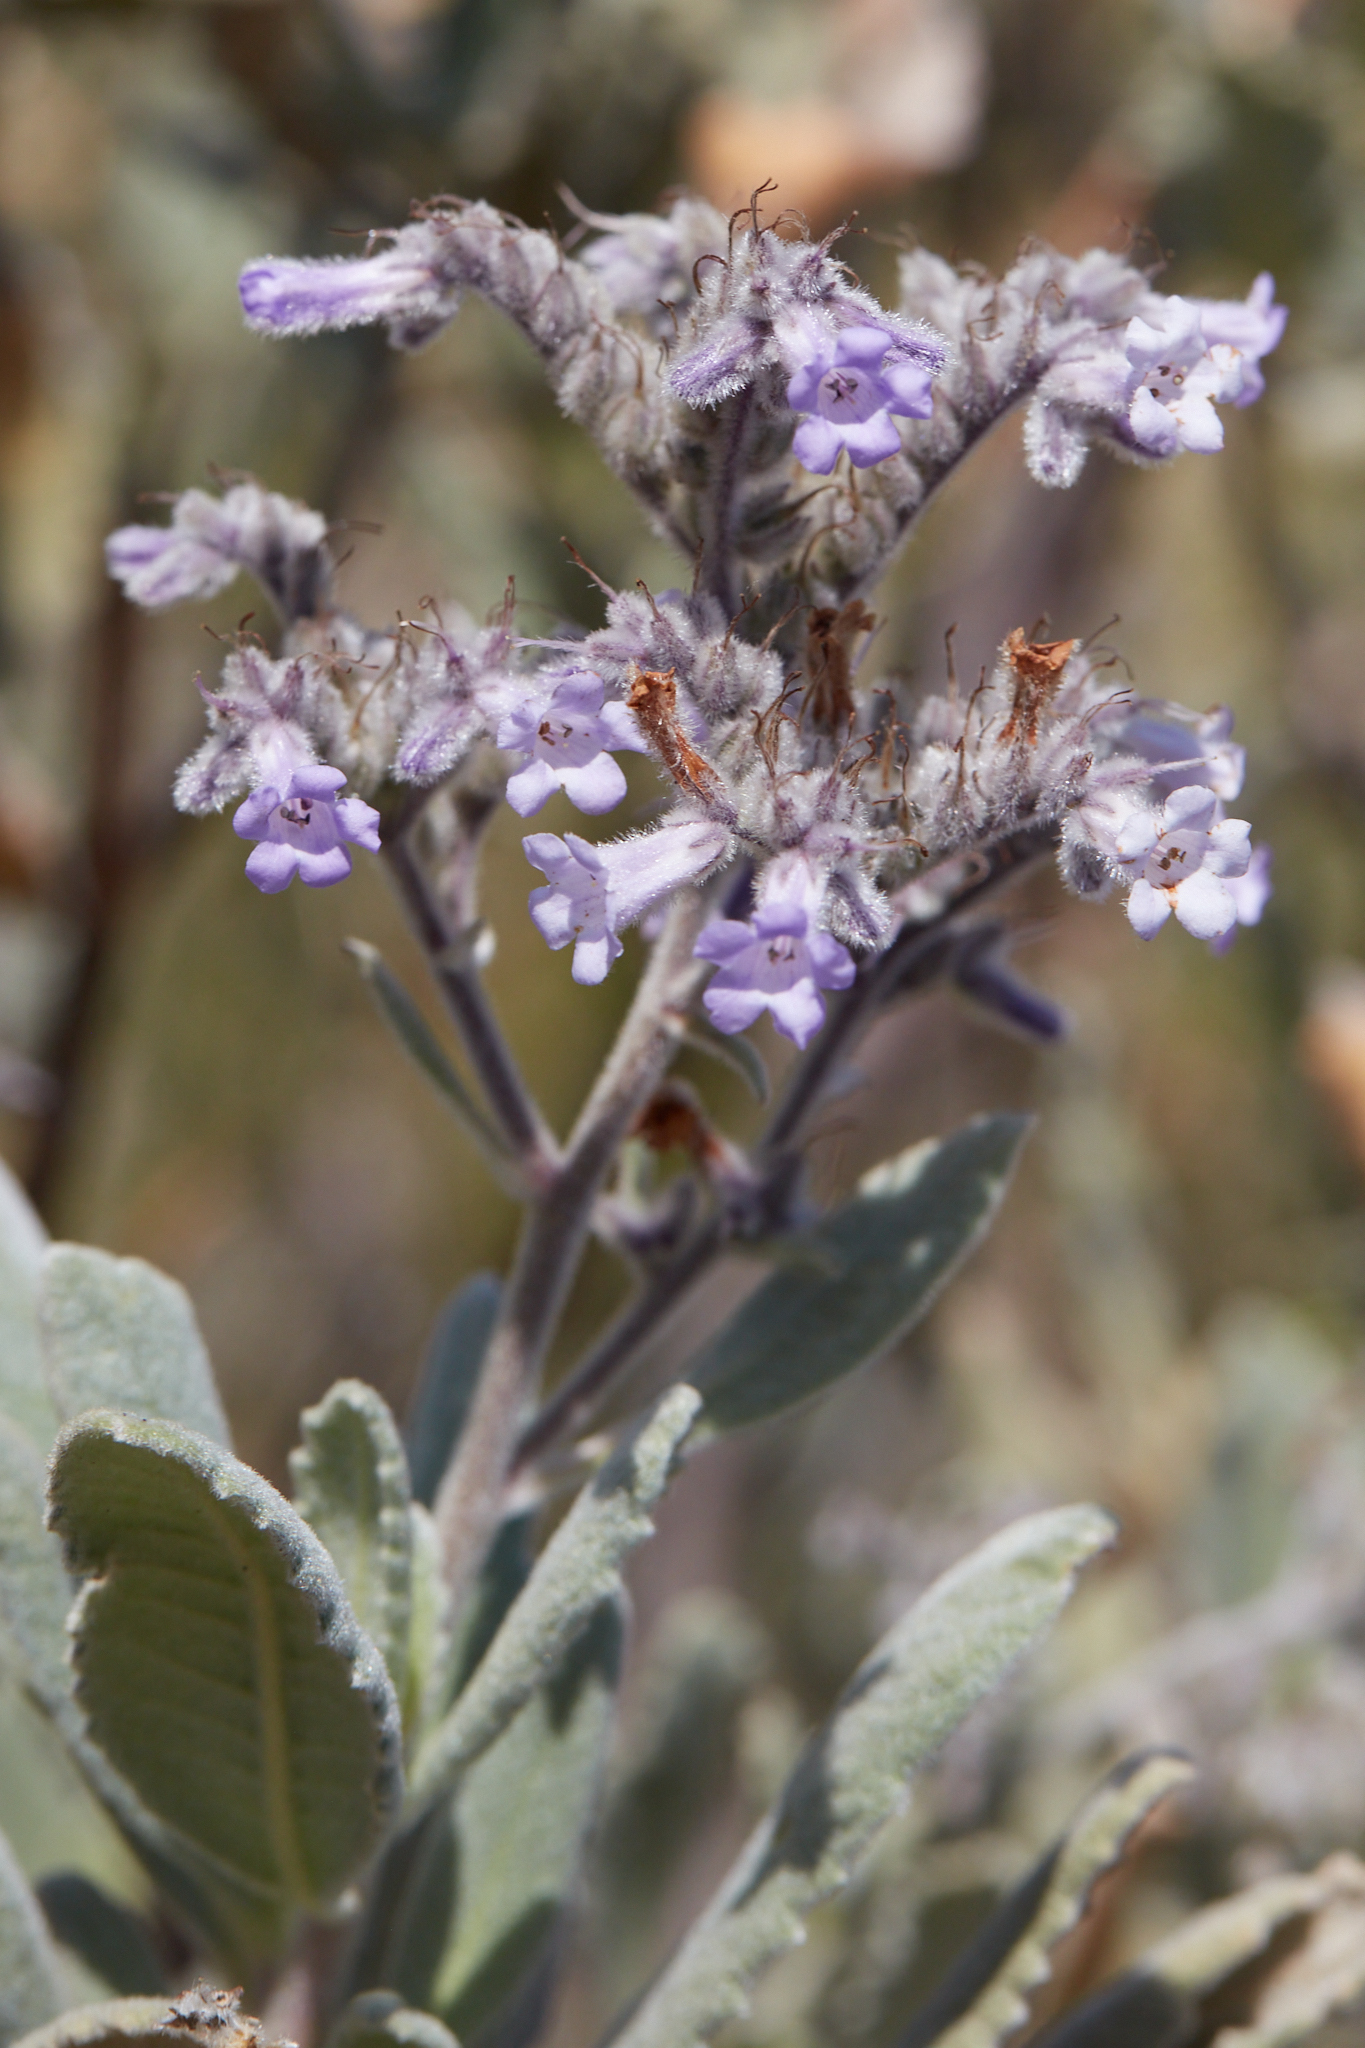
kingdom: Plantae
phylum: Tracheophyta
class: Magnoliopsida
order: Boraginales
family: Namaceae
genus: Eriodictyon
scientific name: Eriodictyon crassifolium
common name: Thick-leaf yerba-santa
